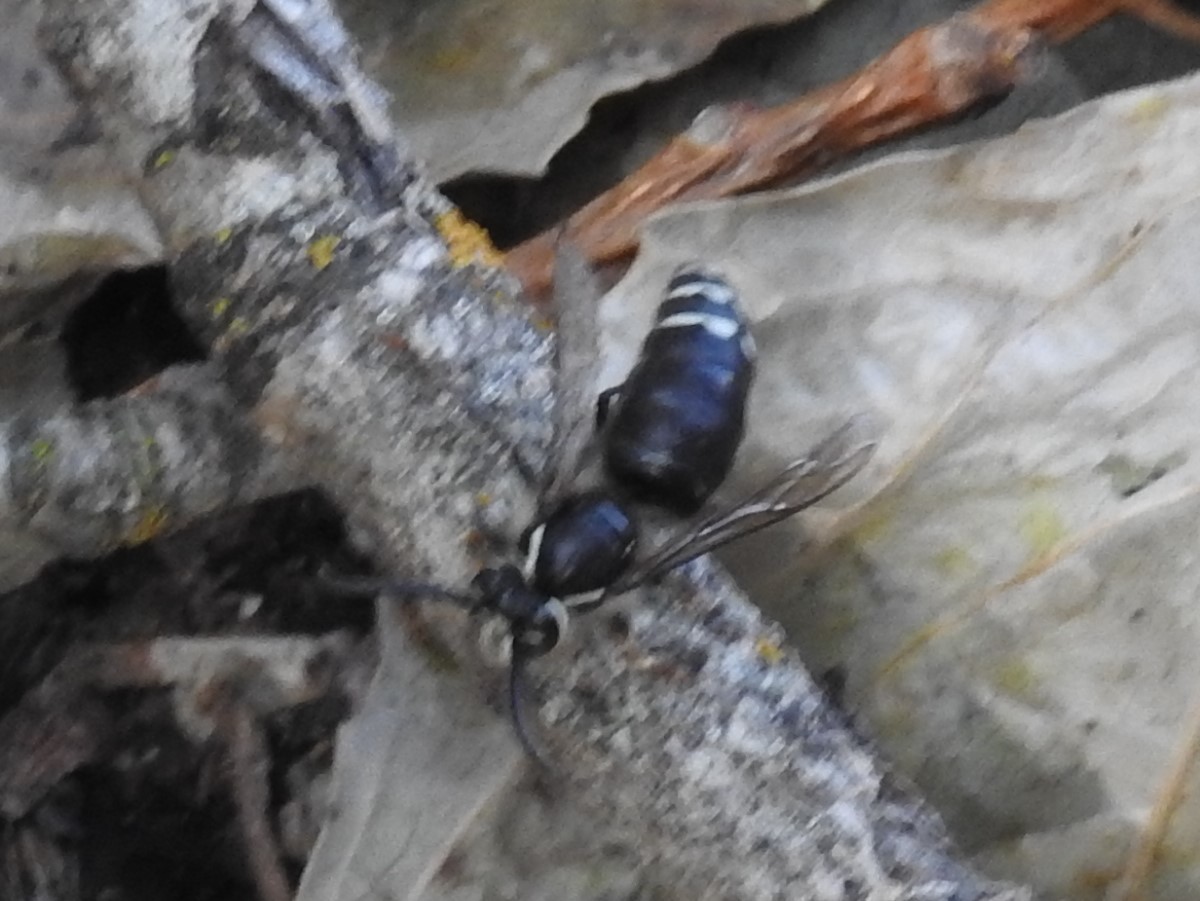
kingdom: Animalia
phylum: Arthropoda
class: Insecta
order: Hymenoptera
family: Vespidae
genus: Dolichovespula
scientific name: Dolichovespula maculata
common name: Bald-faced hornet
